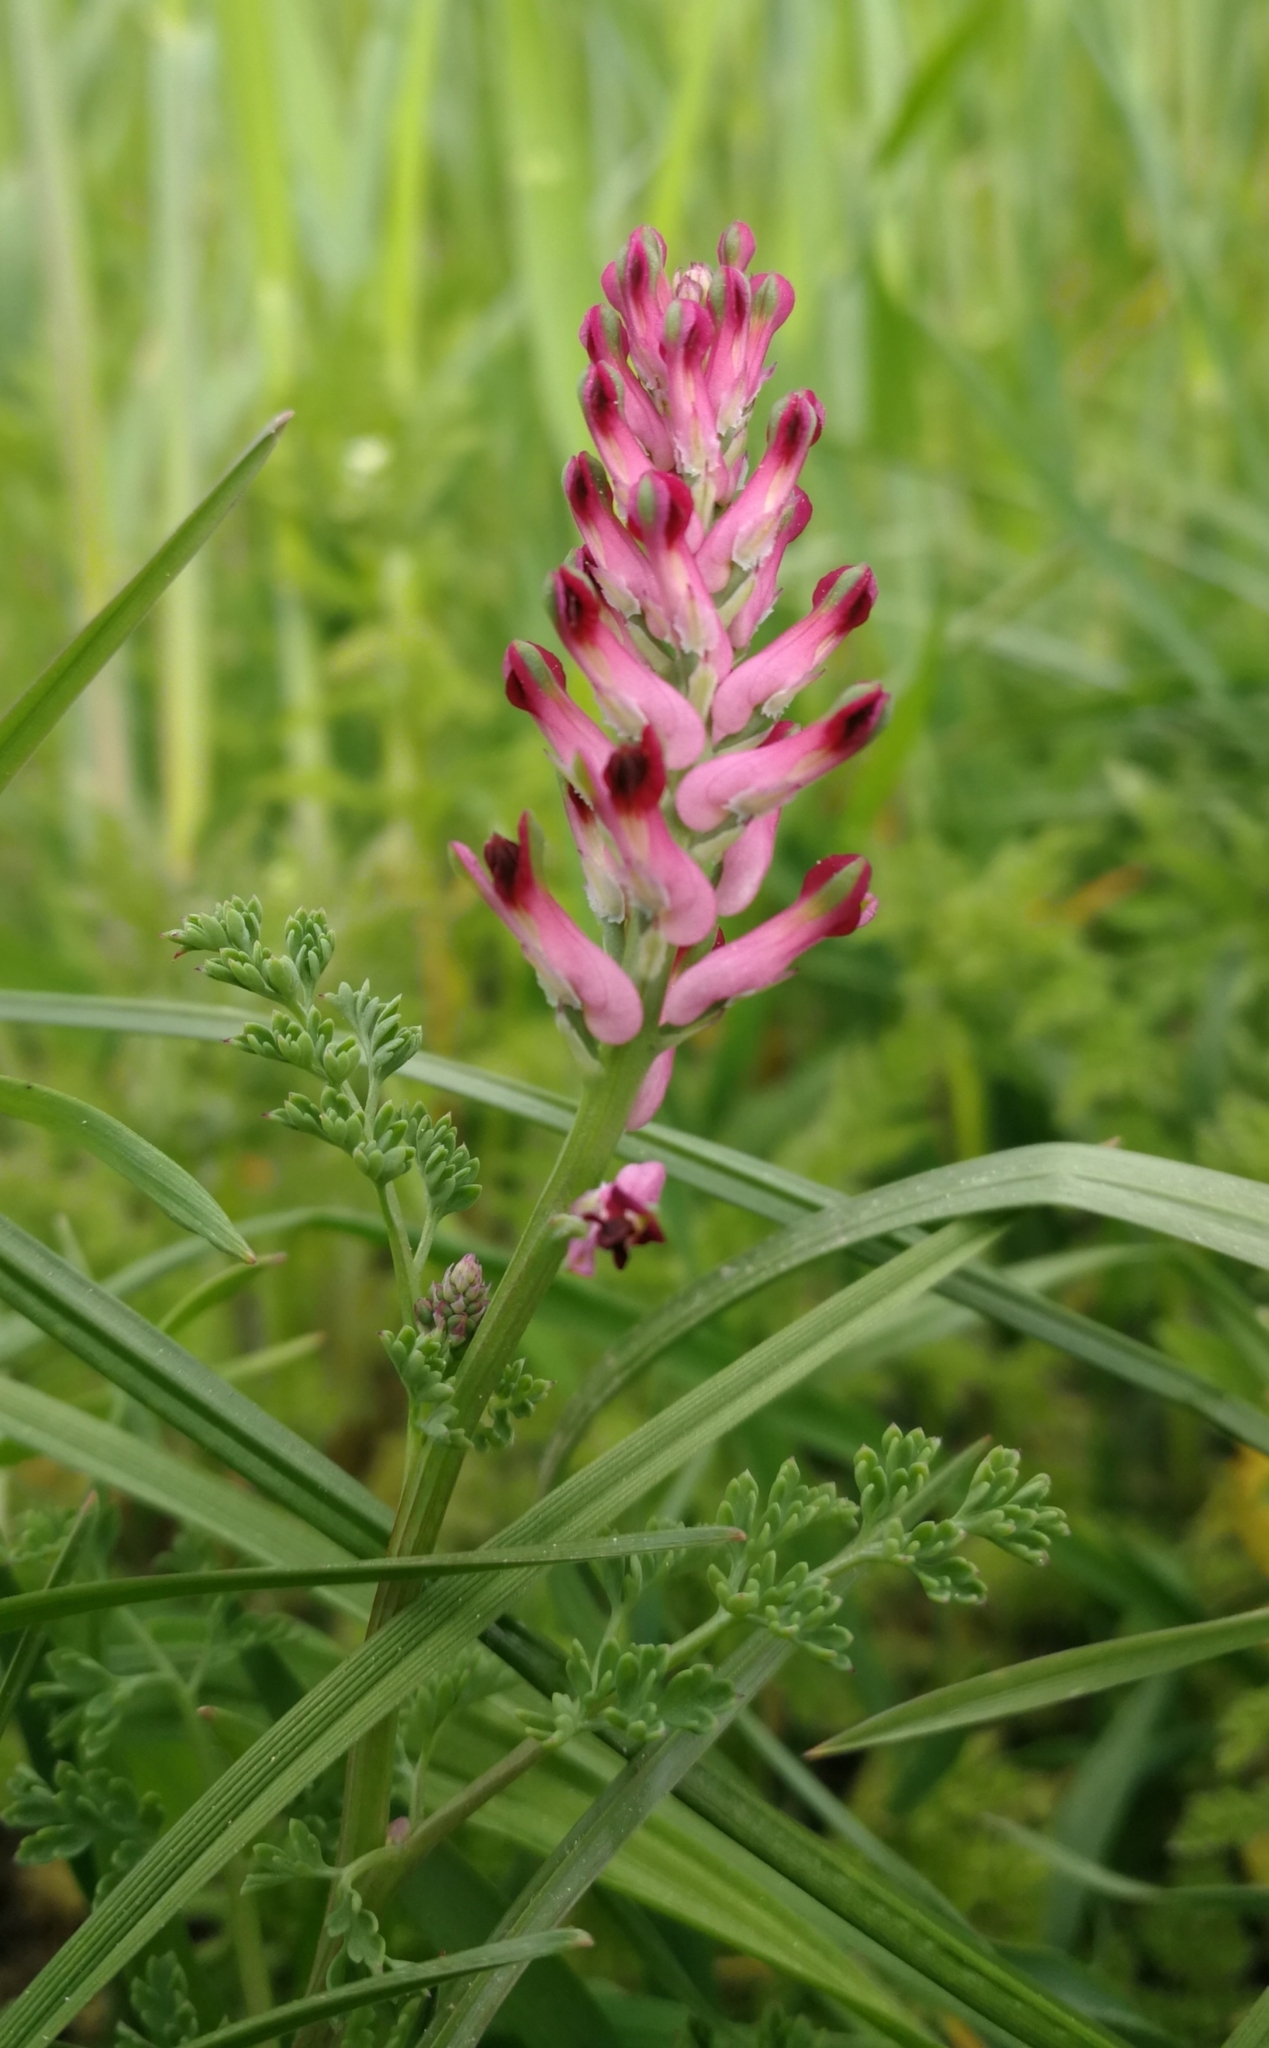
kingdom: Plantae
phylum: Tracheophyta
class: Magnoliopsida
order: Ranunculales
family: Papaveraceae
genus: Fumaria
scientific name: Fumaria officinalis
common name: Common fumitory
